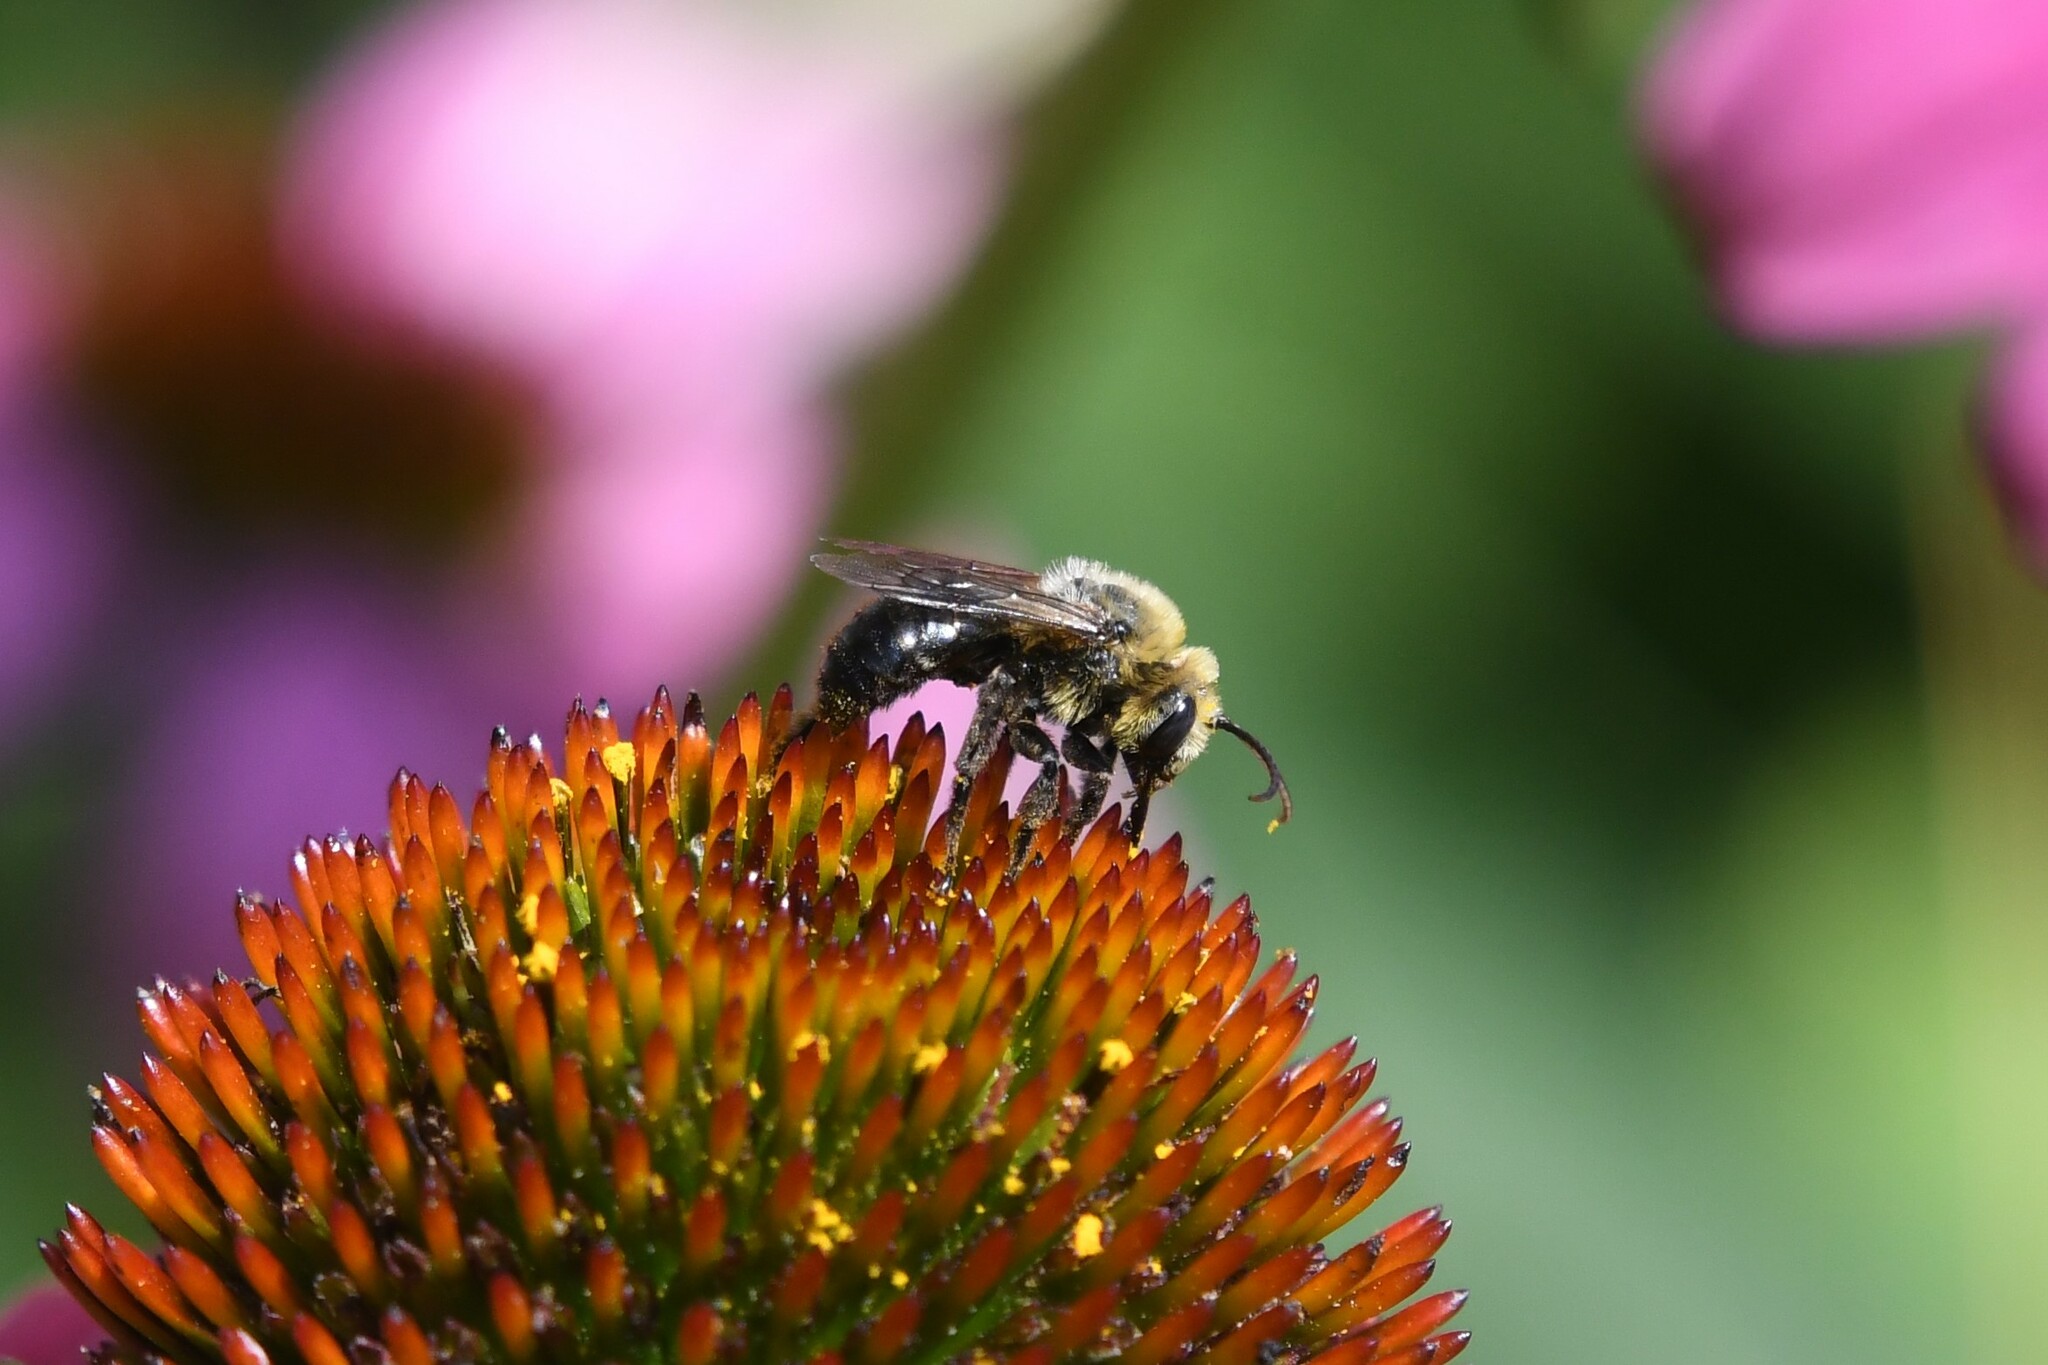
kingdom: Animalia
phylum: Arthropoda
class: Insecta
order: Hymenoptera
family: Apidae
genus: Melissodes
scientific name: Melissodes desponsus
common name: Thistle long-horned bee
